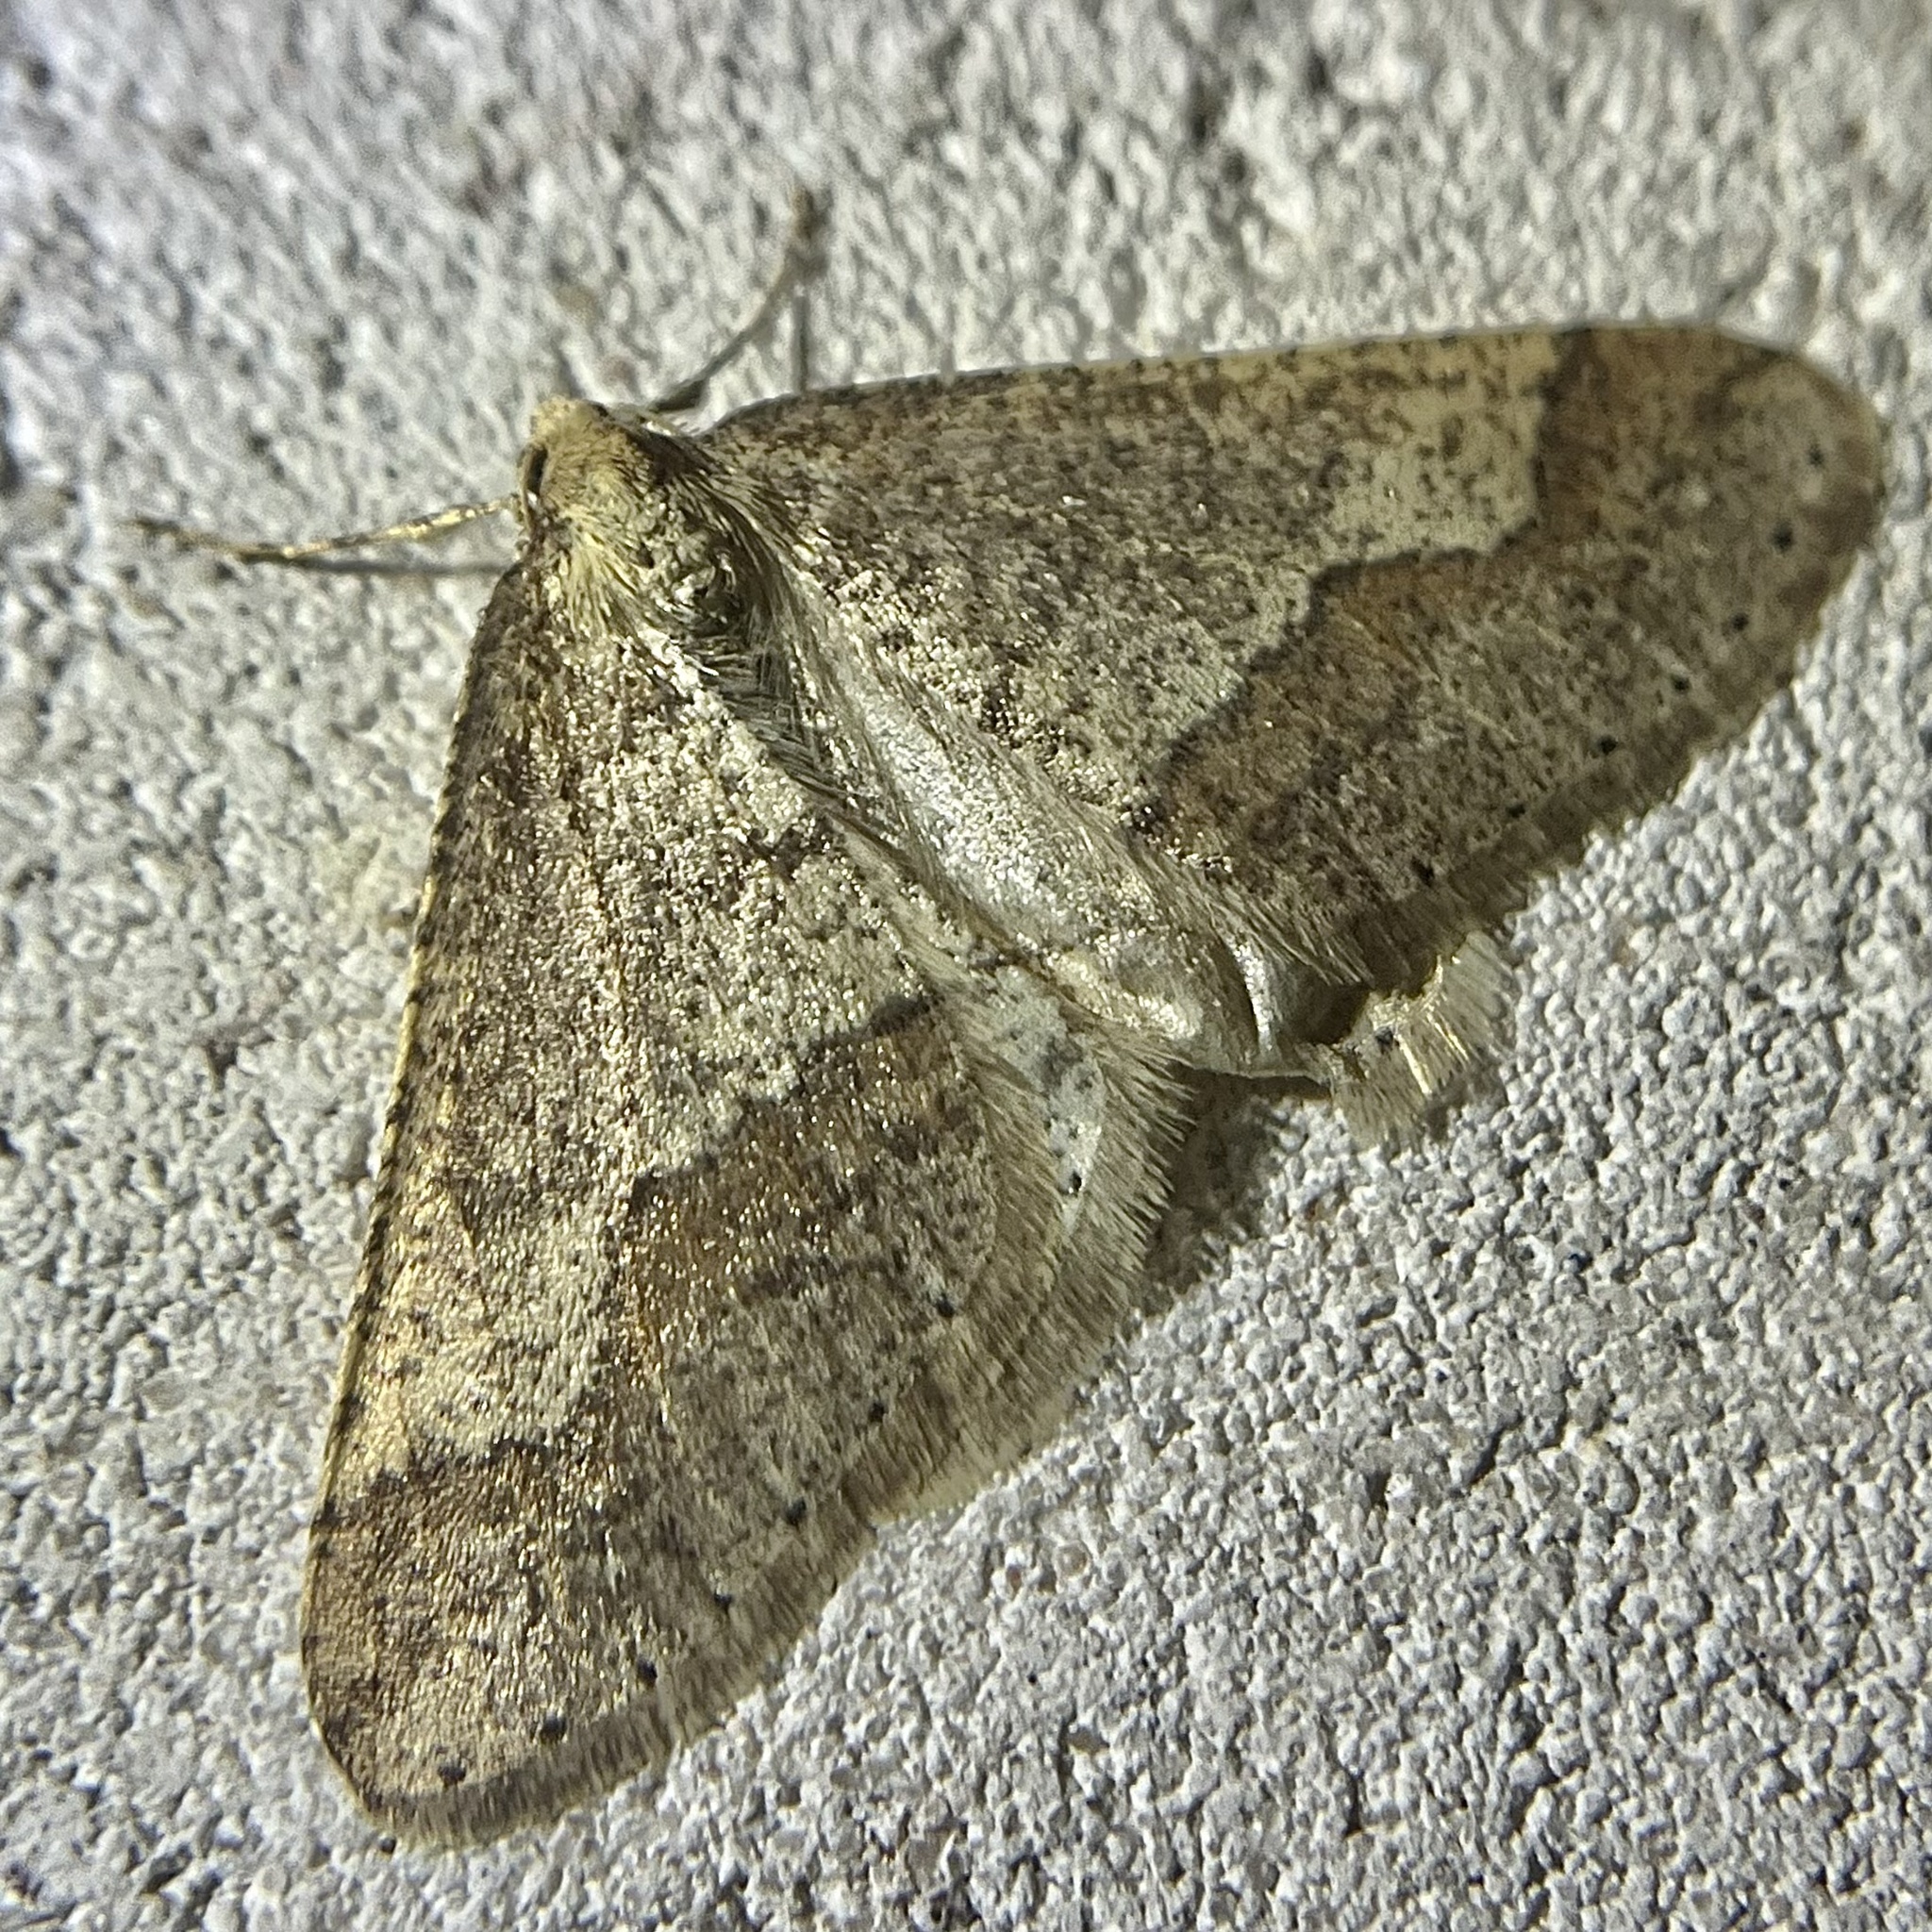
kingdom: Animalia
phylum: Arthropoda
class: Insecta
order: Lepidoptera
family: Geometridae
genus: Agriopis
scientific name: Agriopis marginaria
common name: Dotted border
